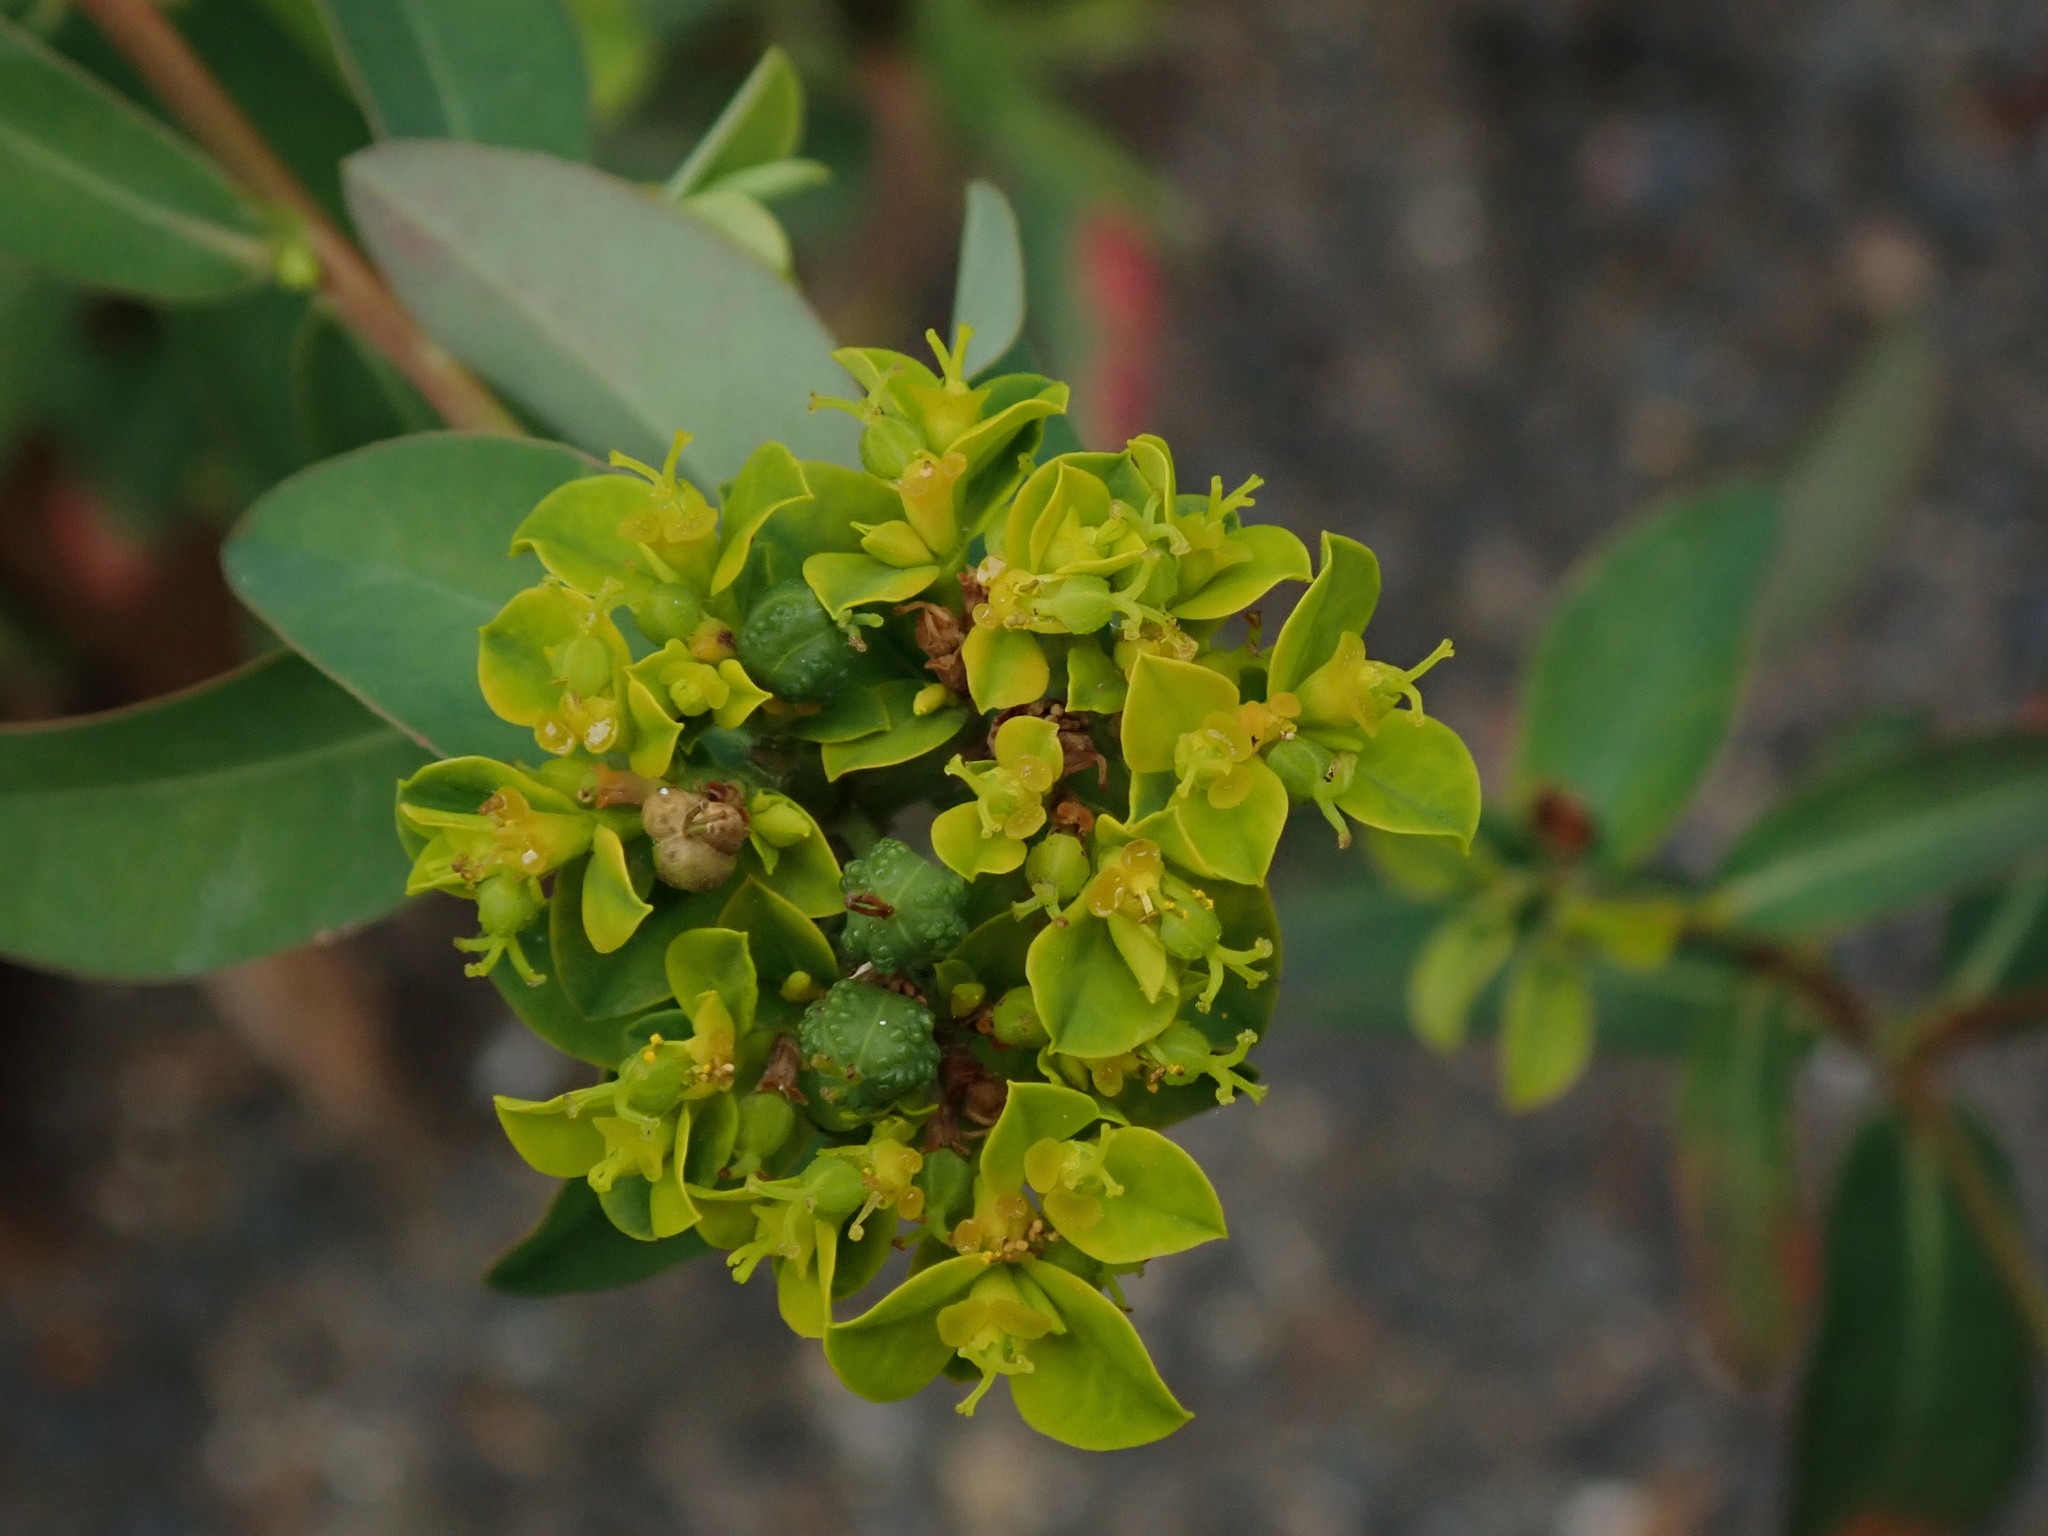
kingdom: Plantae
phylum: Tracheophyta
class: Magnoliopsida
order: Malpighiales
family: Euphorbiaceae
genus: Euphorbia
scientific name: Euphorbia oblongata
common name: Balkan spurge
